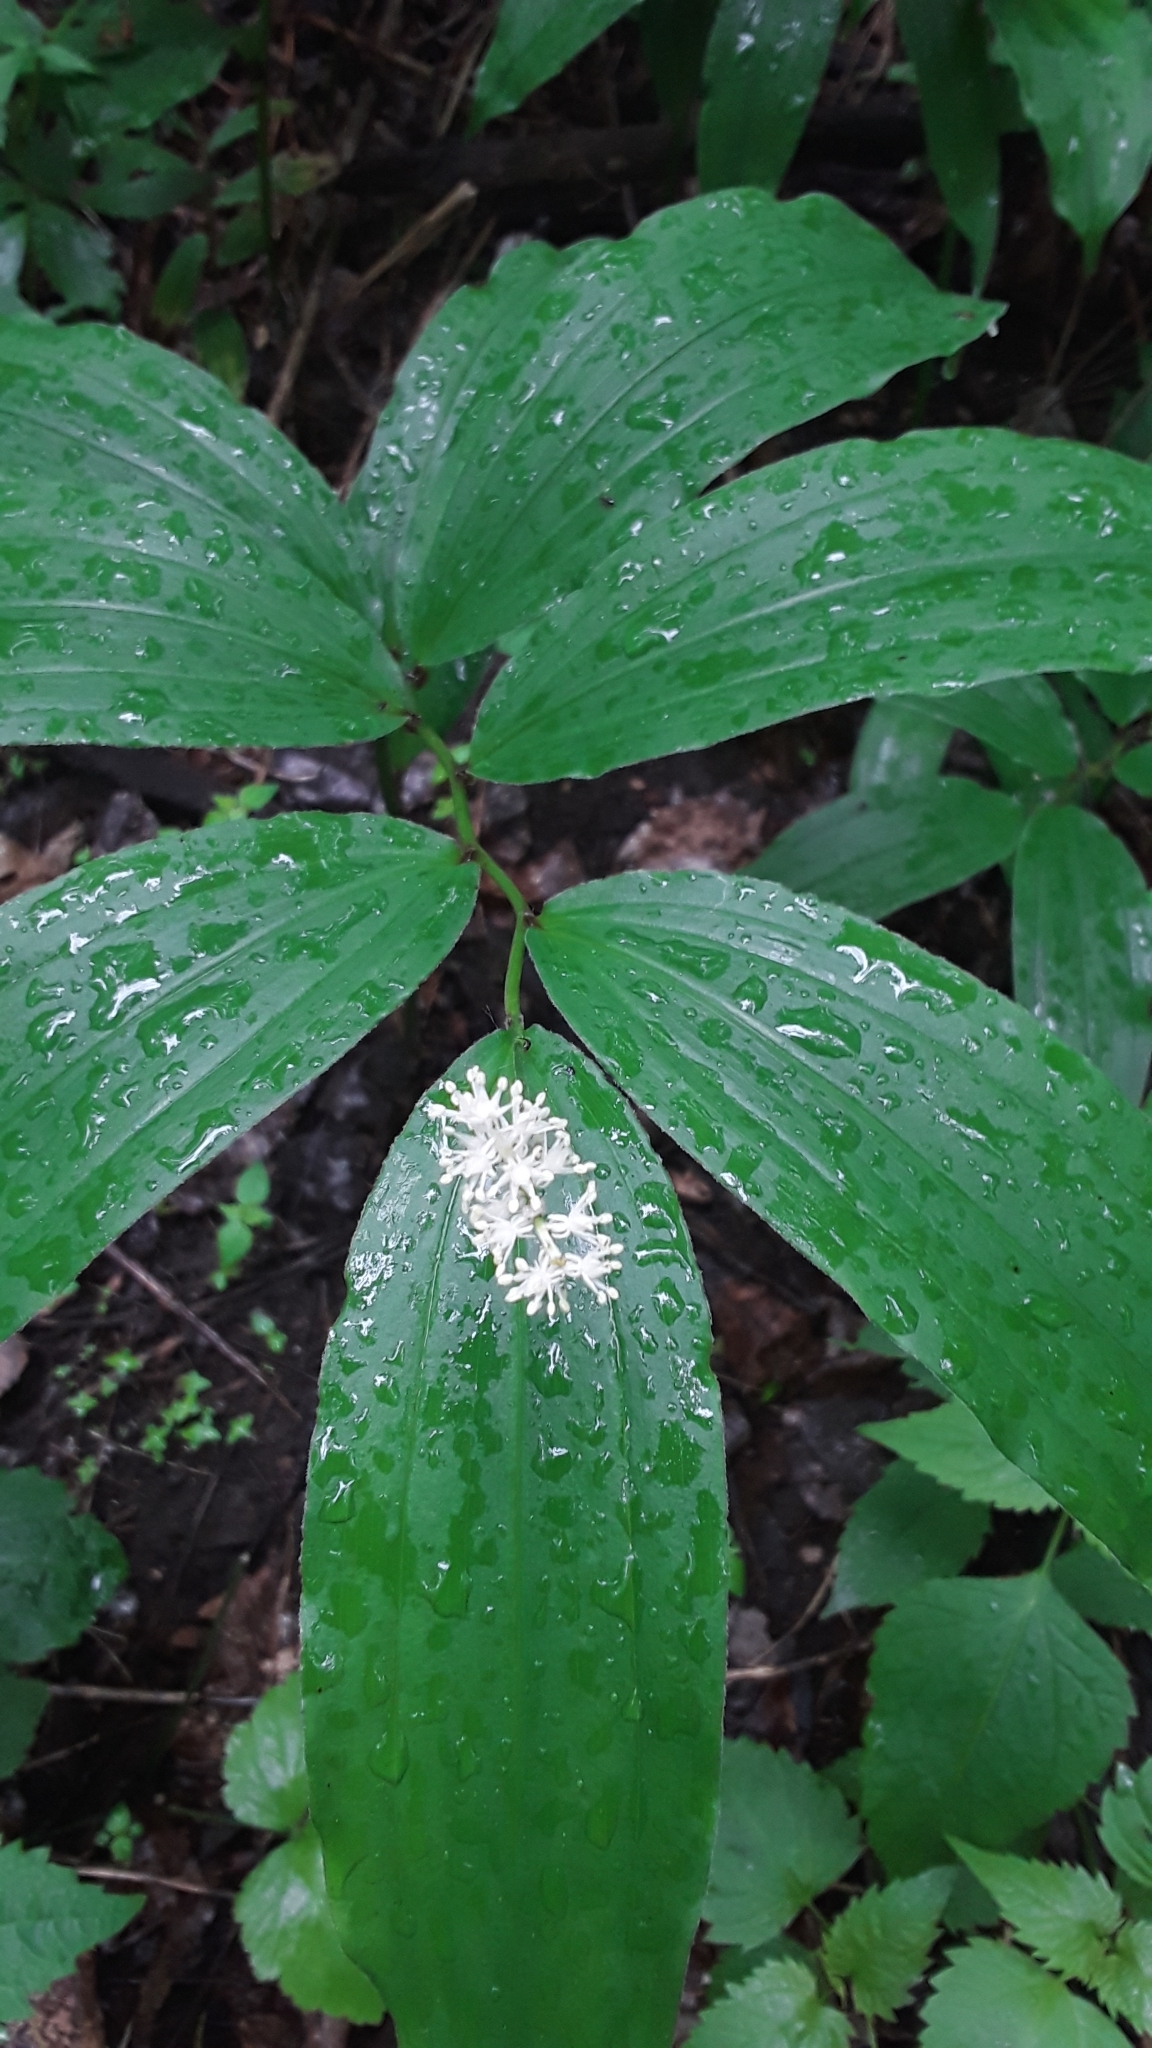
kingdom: Plantae
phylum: Tracheophyta
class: Liliopsida
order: Asparagales
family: Asparagaceae
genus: Maianthemum
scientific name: Maianthemum racemosum
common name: False spikenard
